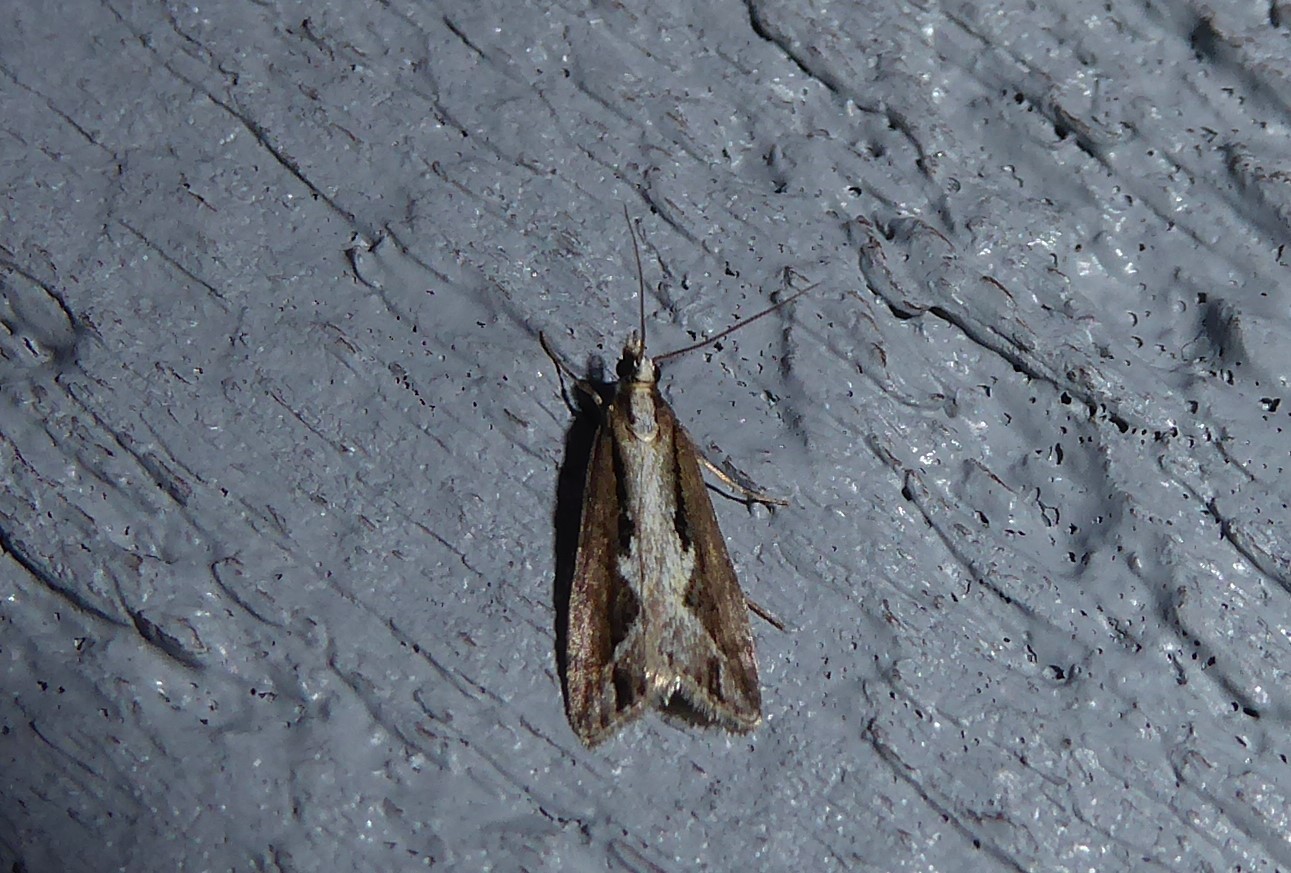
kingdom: Animalia
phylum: Arthropoda
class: Insecta
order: Lepidoptera
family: Crambidae
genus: Eudonia
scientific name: Eudonia steropaea
